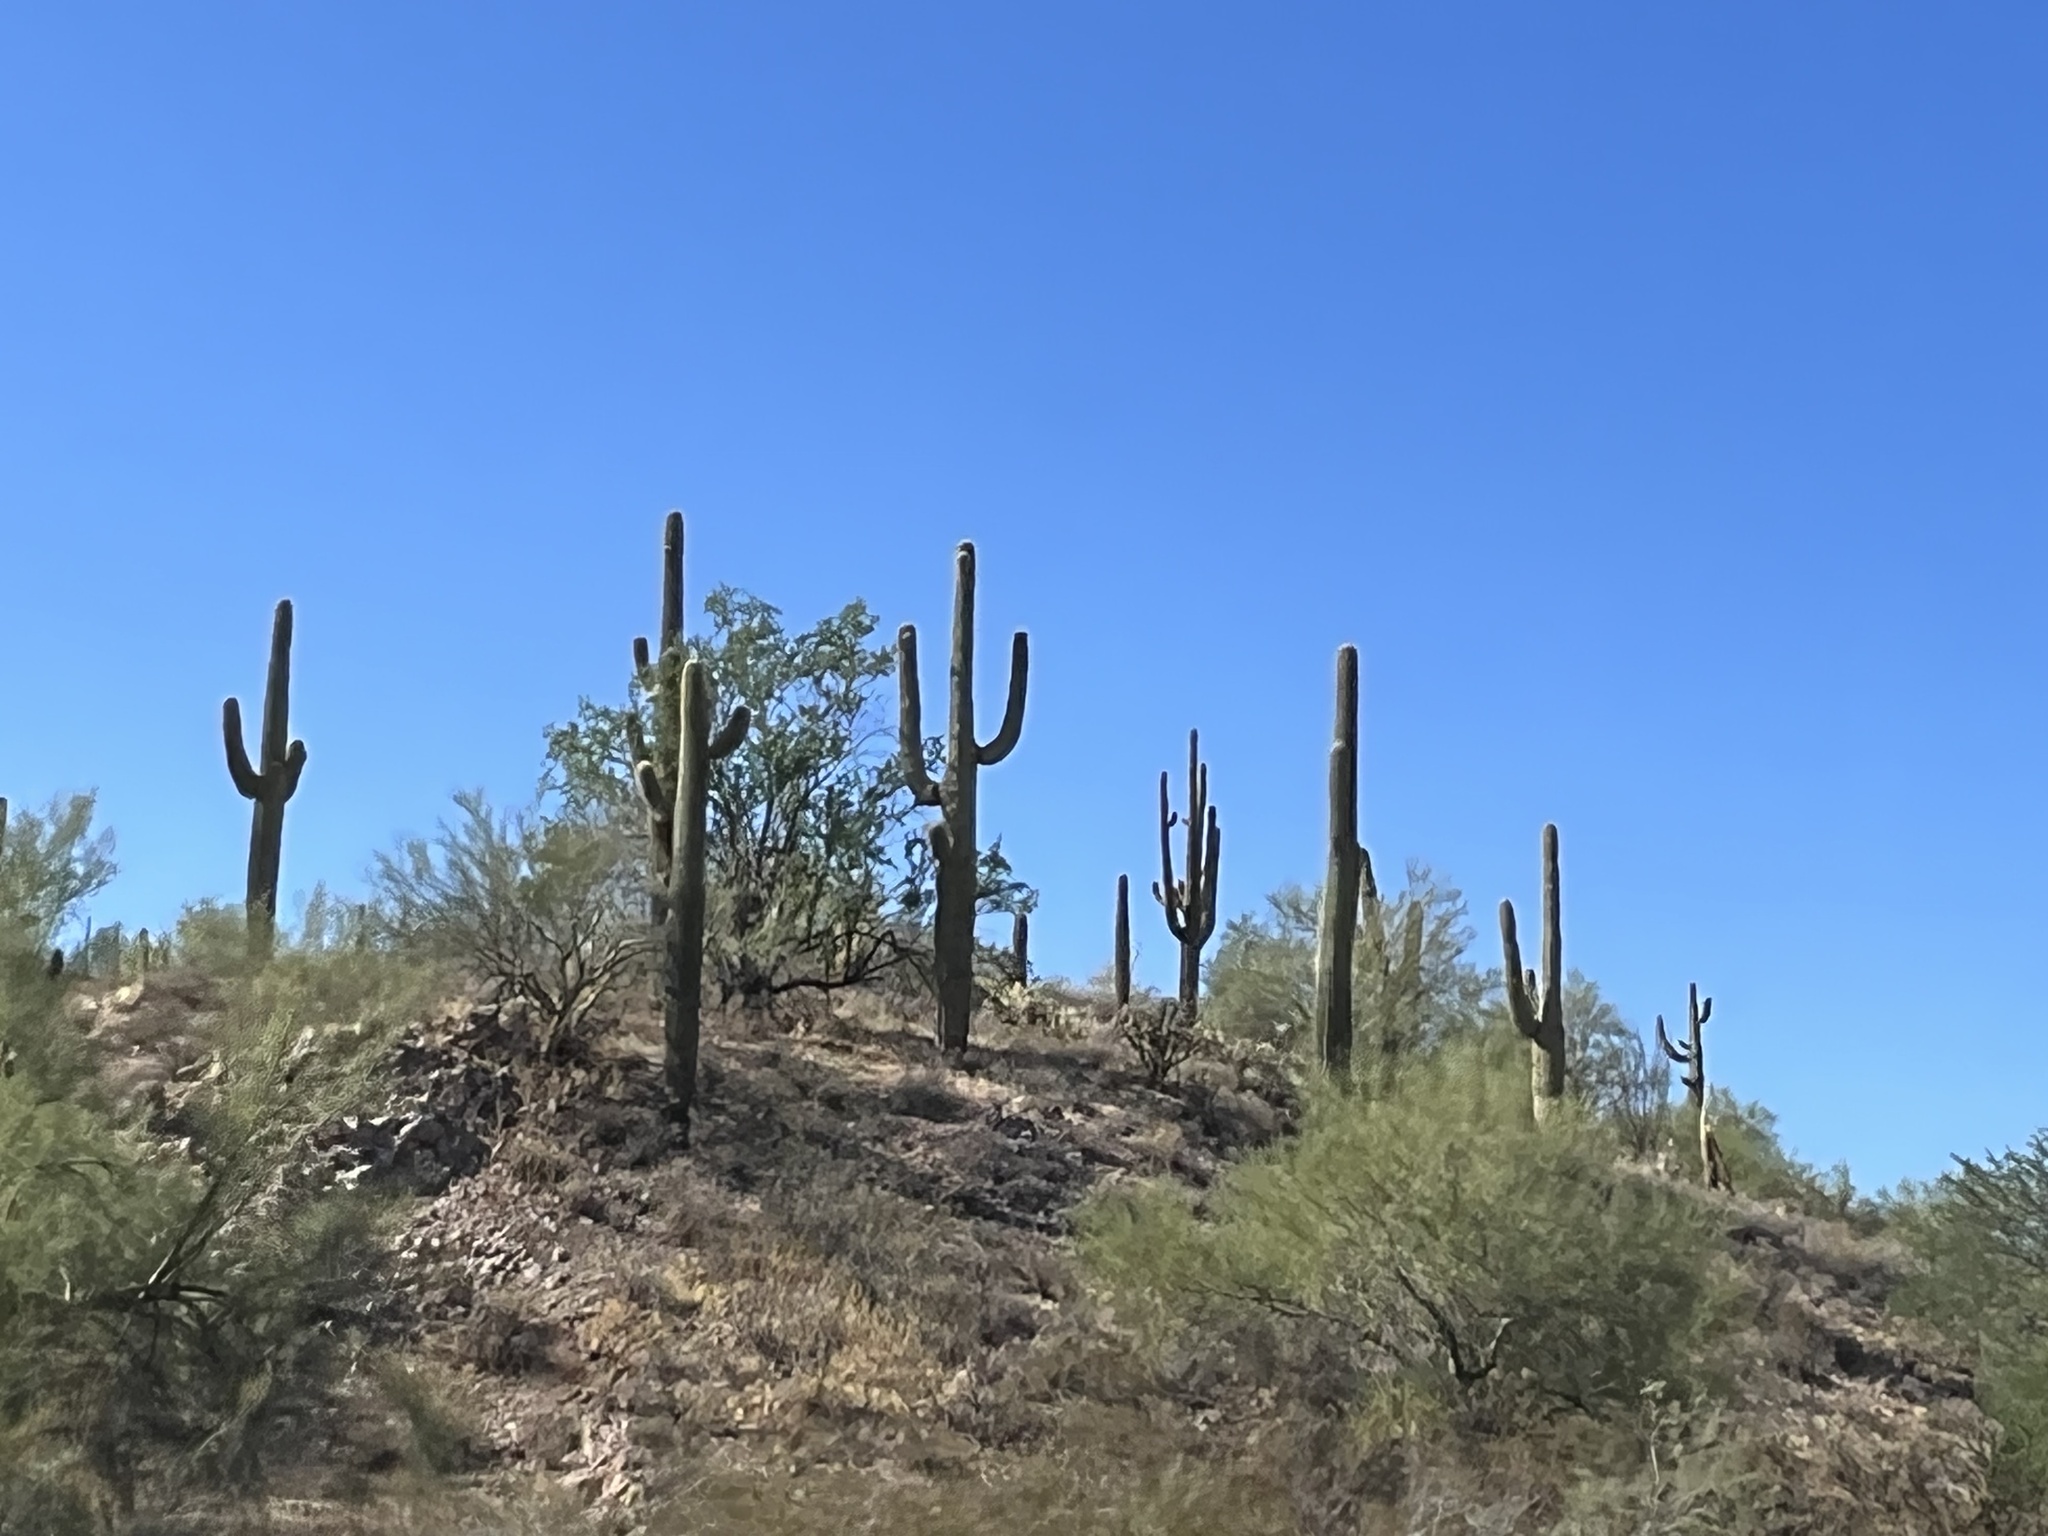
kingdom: Plantae
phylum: Tracheophyta
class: Magnoliopsida
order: Caryophyllales
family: Cactaceae
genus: Carnegiea
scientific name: Carnegiea gigantea
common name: Saguaro
